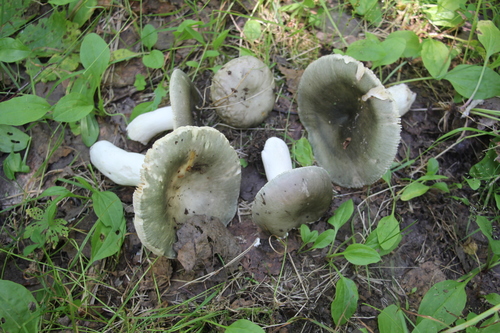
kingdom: Fungi
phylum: Basidiomycota
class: Agaricomycetes
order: Russulales
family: Russulaceae
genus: Russula
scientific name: Russula vesca
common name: Bare-toothed russula
